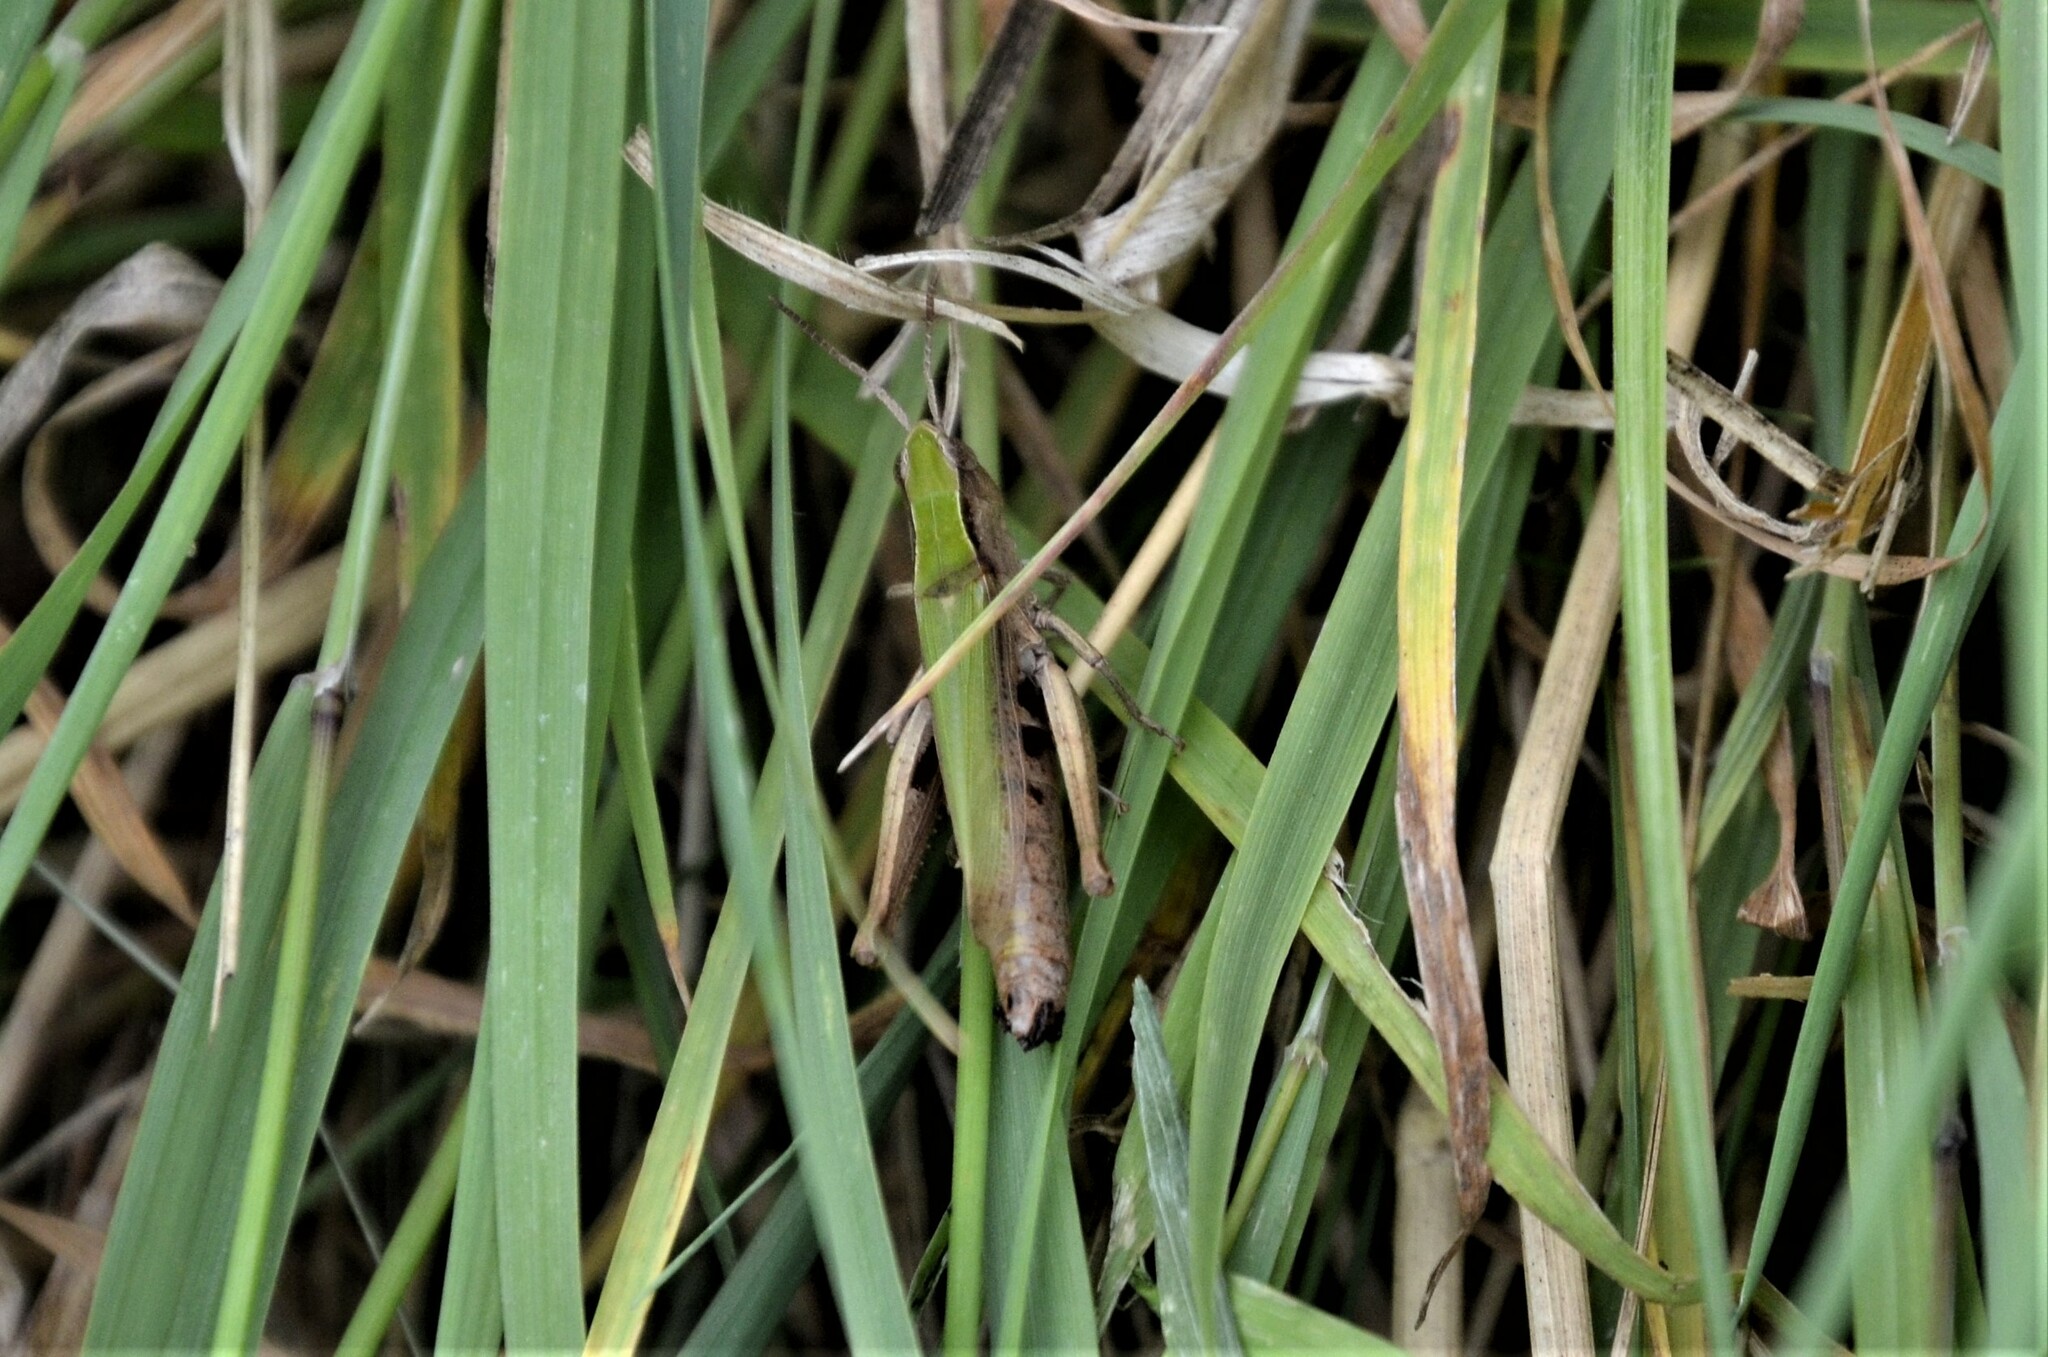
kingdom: Animalia
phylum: Arthropoda
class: Insecta
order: Orthoptera
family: Acrididae
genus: Chorthippus
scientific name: Chorthippus dorsatus
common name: Steppe grasshopper
